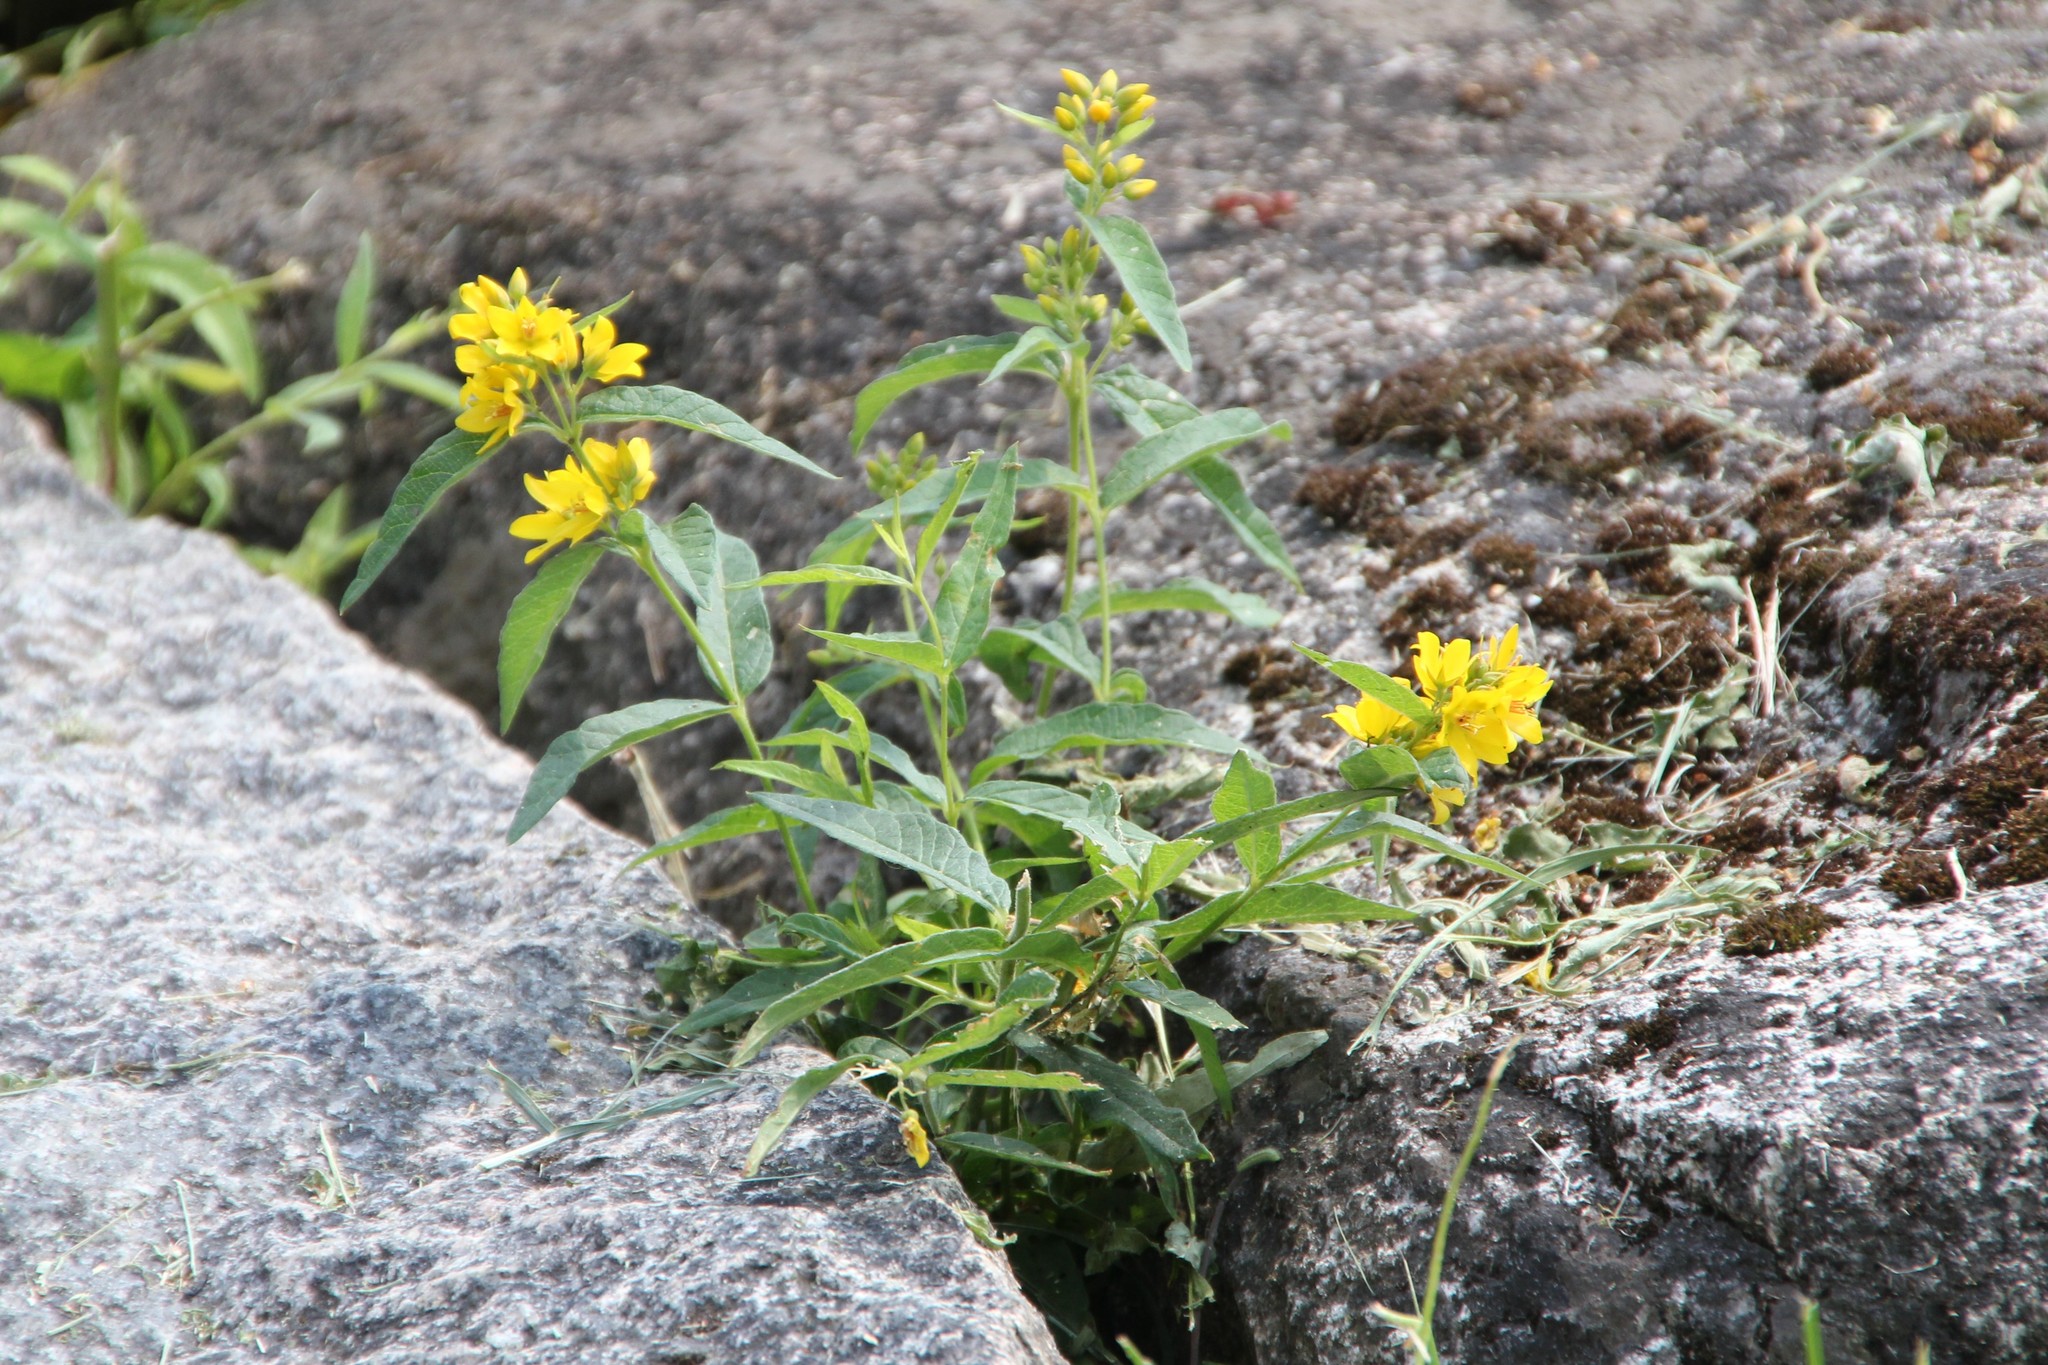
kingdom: Plantae
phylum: Tracheophyta
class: Magnoliopsida
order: Ericales
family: Primulaceae
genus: Lysimachia
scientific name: Lysimachia vulgaris
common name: Yellow loosestrife
